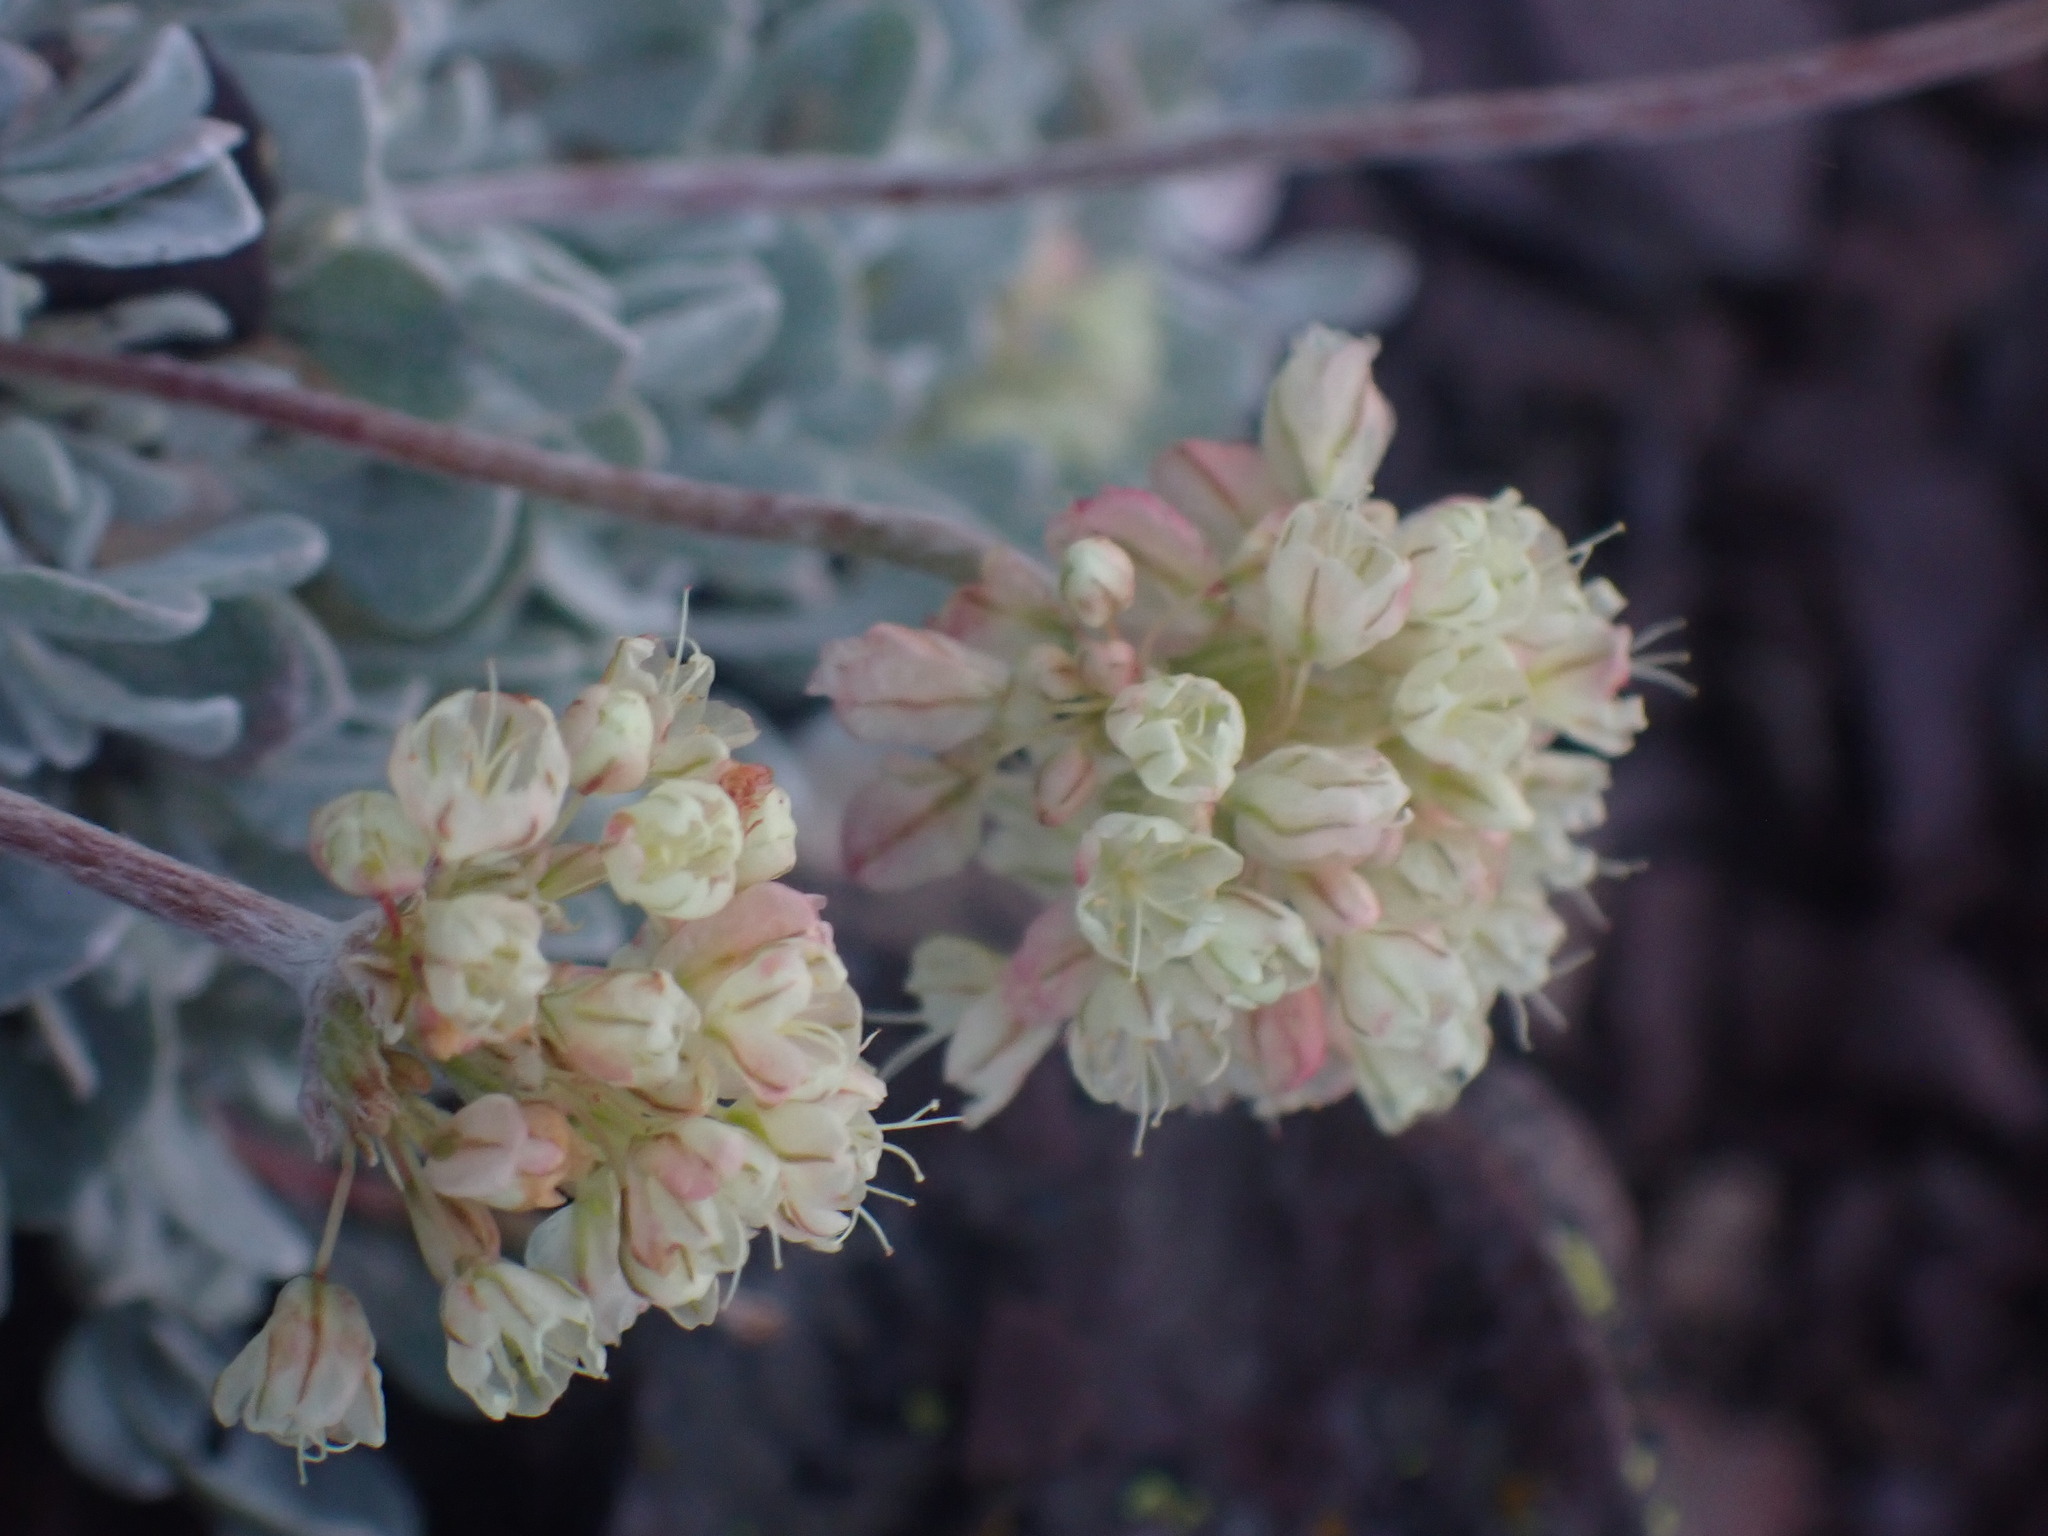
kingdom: Plantae
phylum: Tracheophyta
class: Magnoliopsida
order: Caryophyllales
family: Polygonaceae
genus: Eriogonum
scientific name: Eriogonum ovalifolium
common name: Cushion buckwheat
